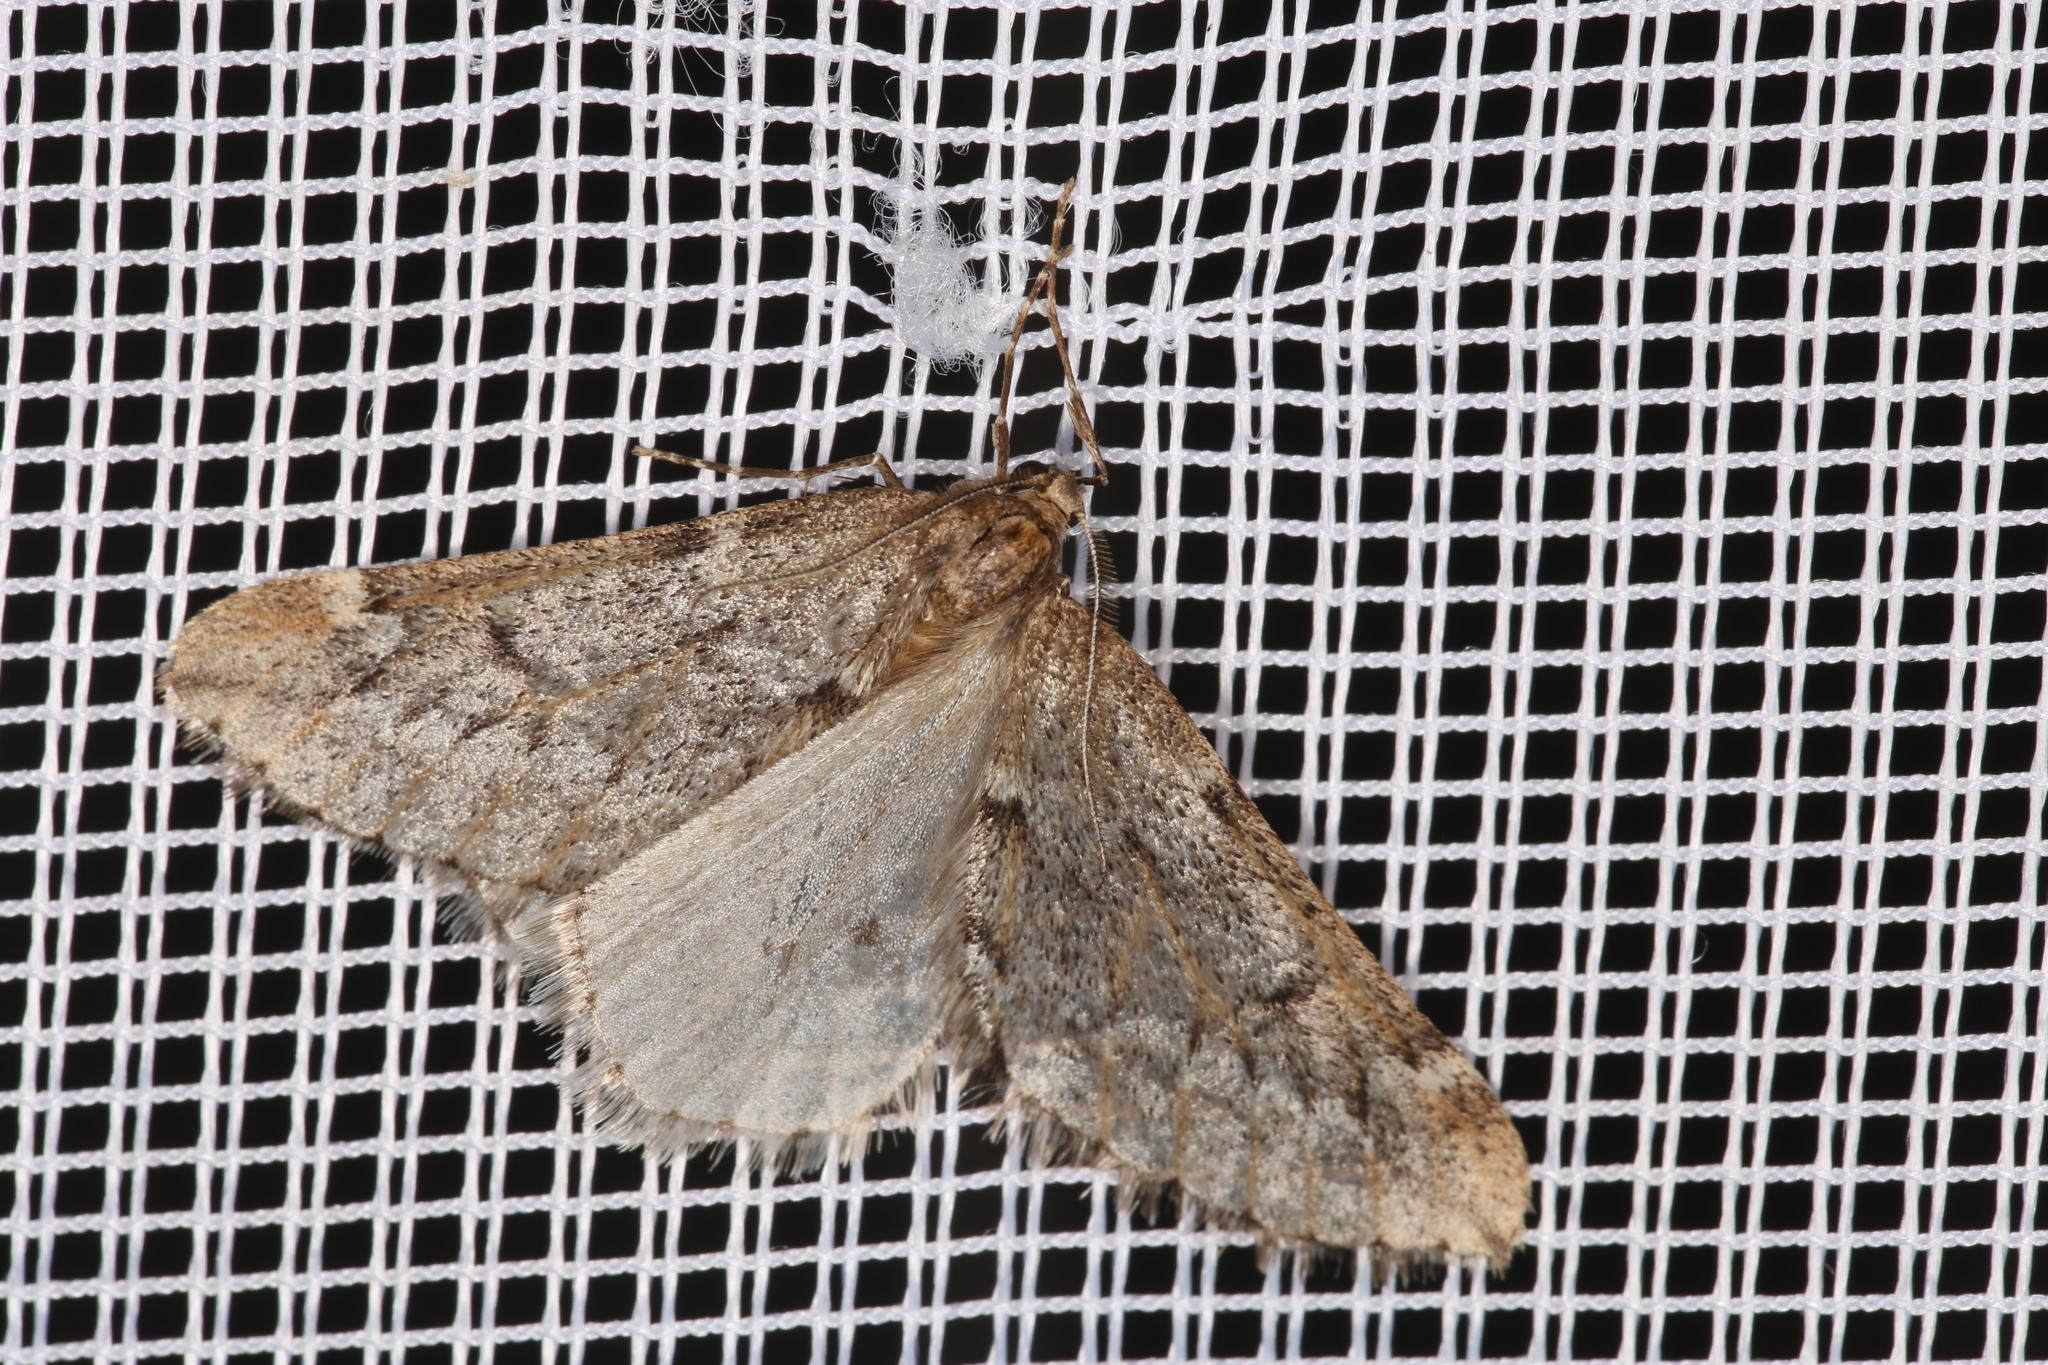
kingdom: Animalia
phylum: Arthropoda
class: Insecta
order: Lepidoptera
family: Geometridae
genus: Alsophila
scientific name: Alsophila aescularia
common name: March moth
